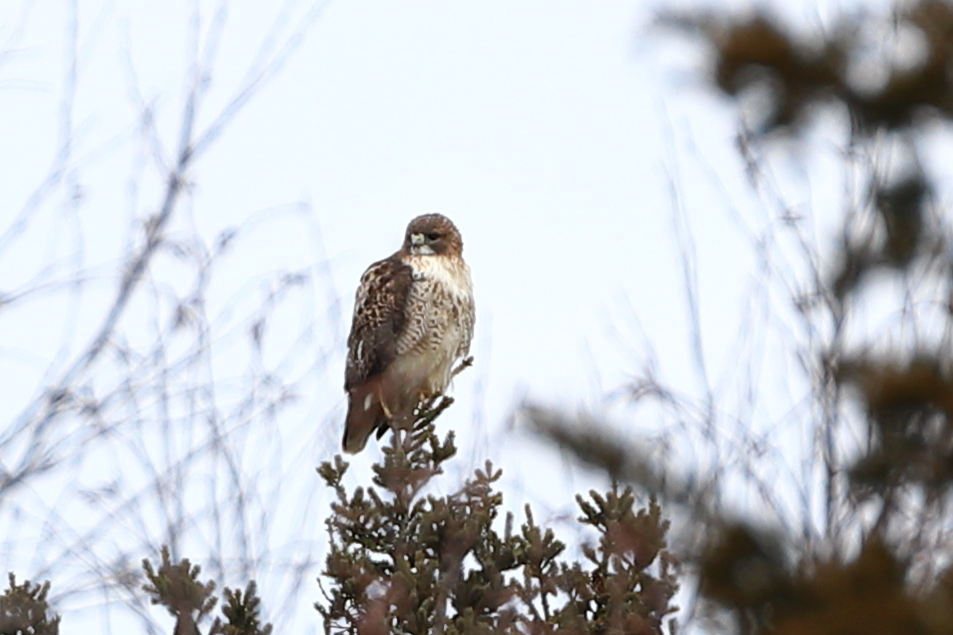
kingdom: Animalia
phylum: Chordata
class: Aves
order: Accipitriformes
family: Accipitridae
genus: Buteo
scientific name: Buteo jamaicensis
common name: Red-tailed hawk
